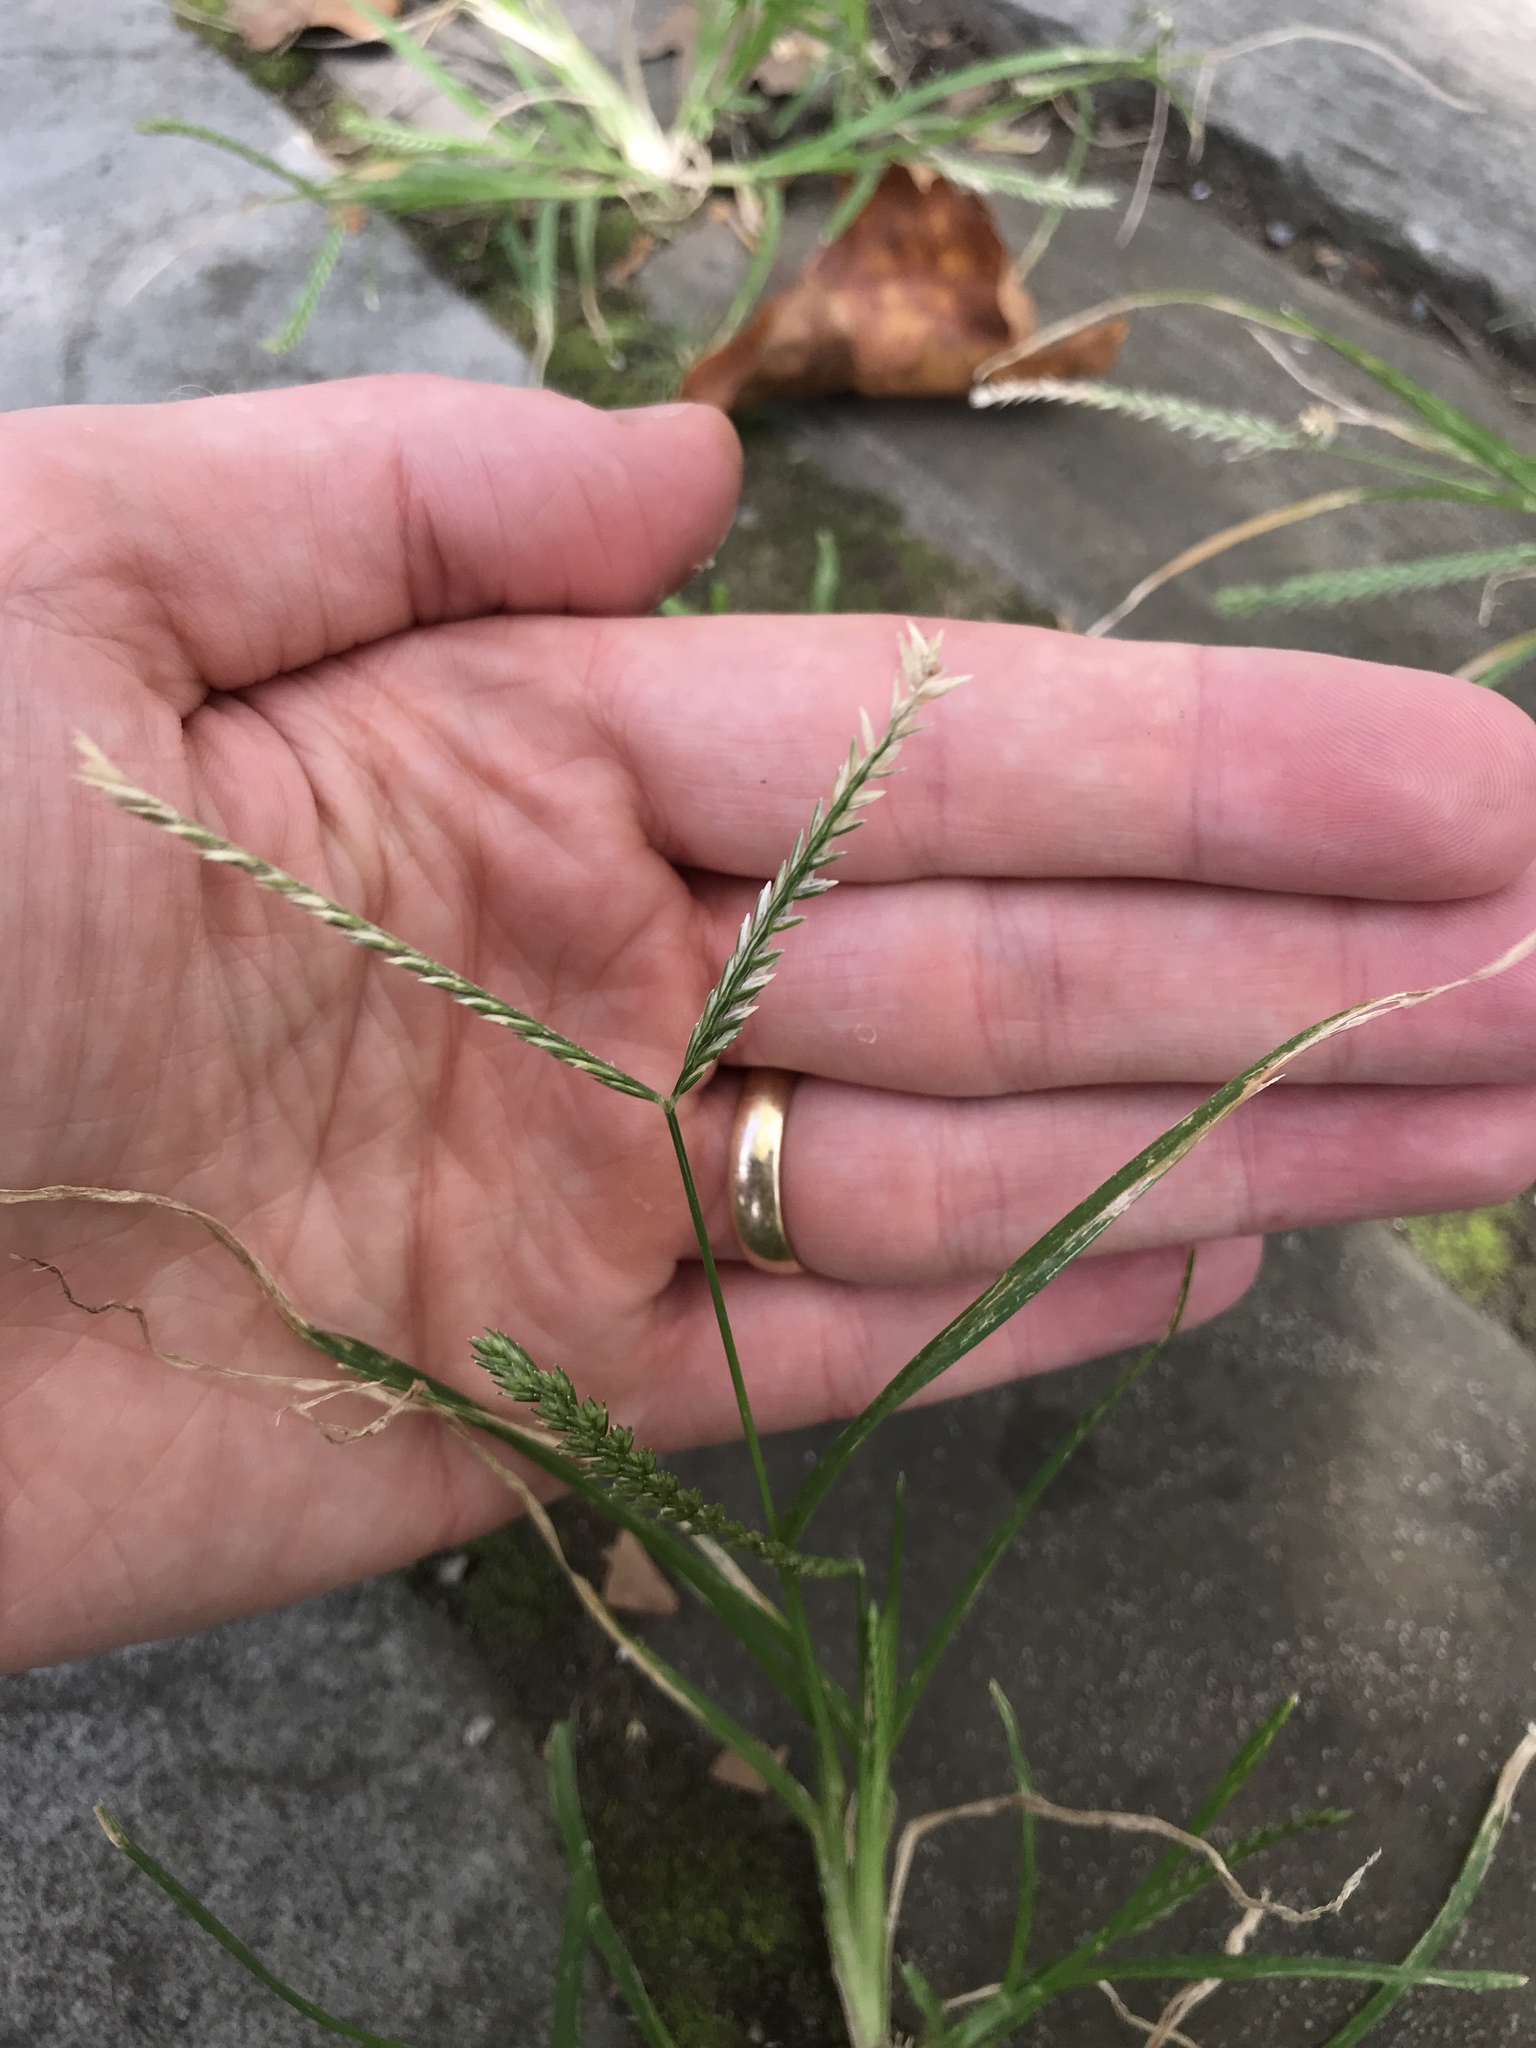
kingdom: Plantae
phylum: Tracheophyta
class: Liliopsida
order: Poales
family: Poaceae
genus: Eleusine
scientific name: Eleusine indica
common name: Yard-grass
